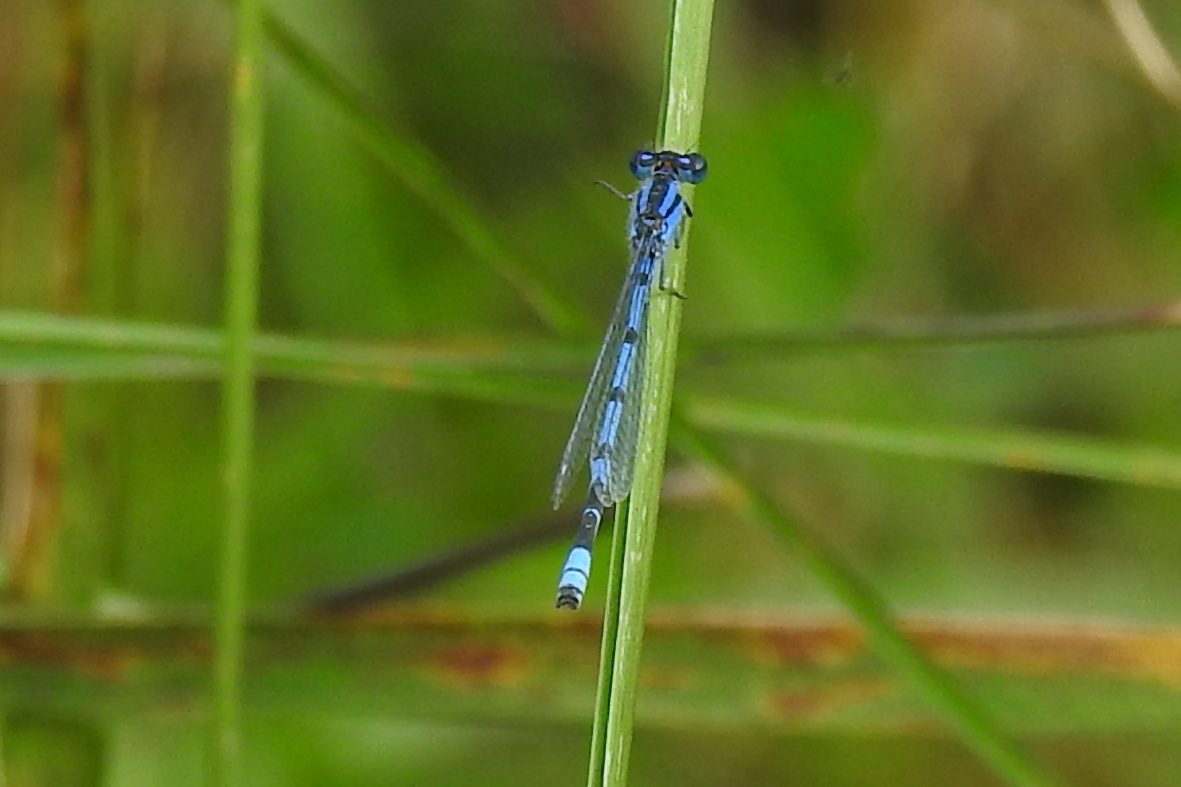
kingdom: Animalia
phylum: Arthropoda
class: Insecta
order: Odonata
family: Coenagrionidae
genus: Enallagma
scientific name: Enallagma civile
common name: Damselfly
